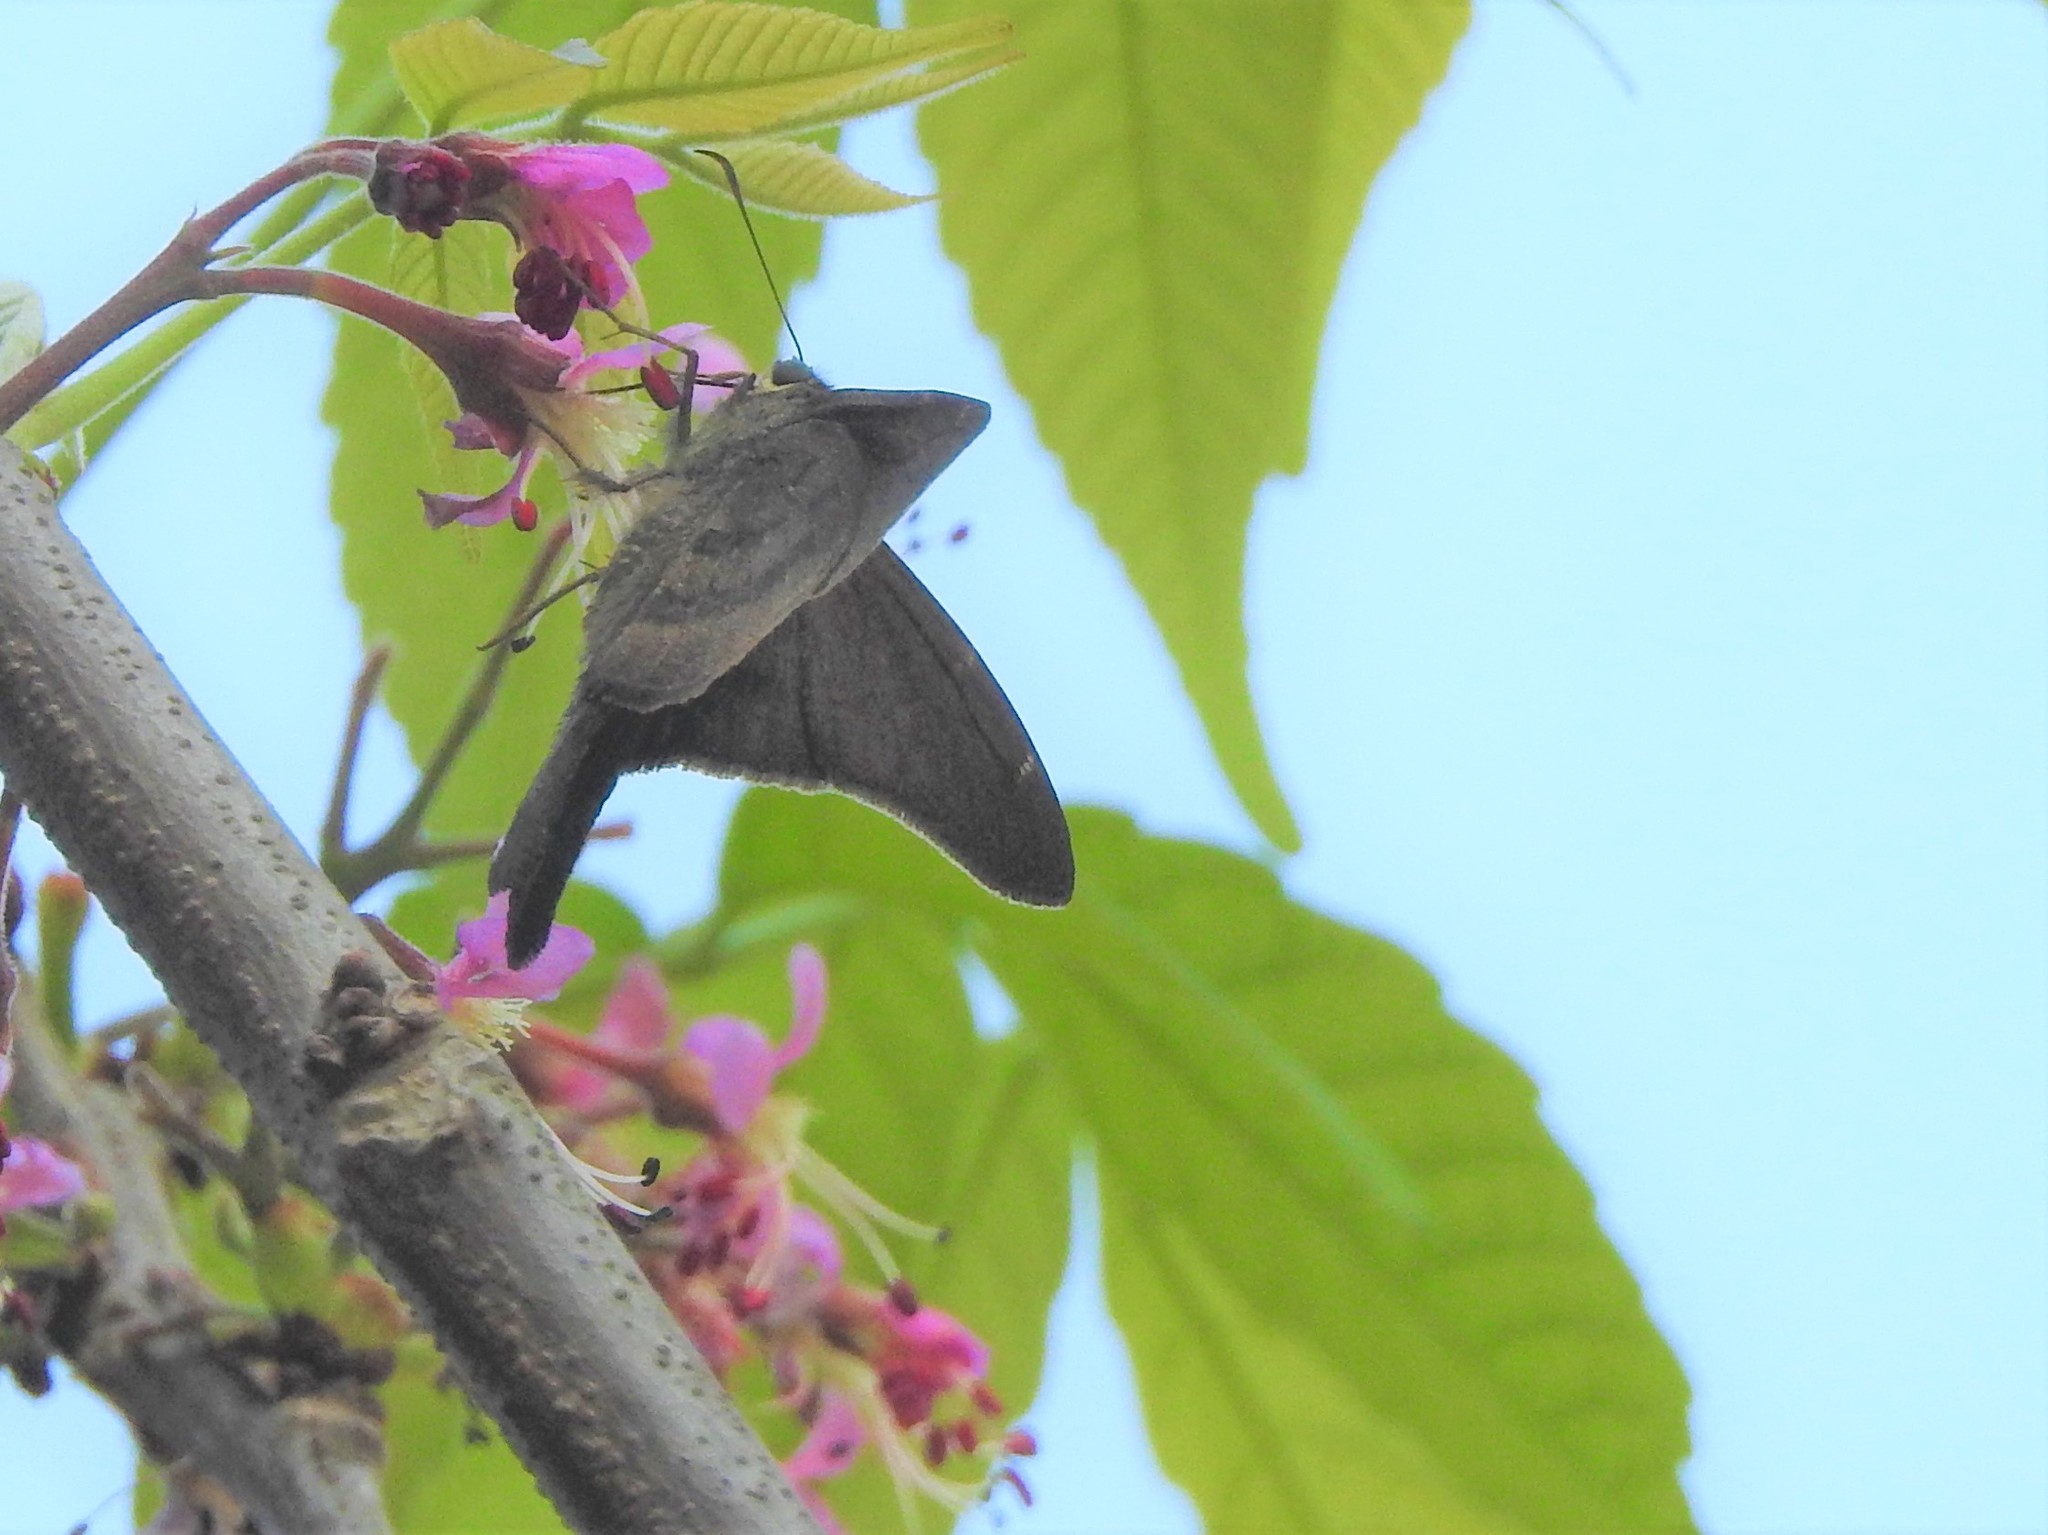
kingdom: Animalia
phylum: Arthropoda
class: Insecta
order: Lepidoptera
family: Hesperiidae
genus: Urbanus
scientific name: Urbanus procne
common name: Brown longtail
